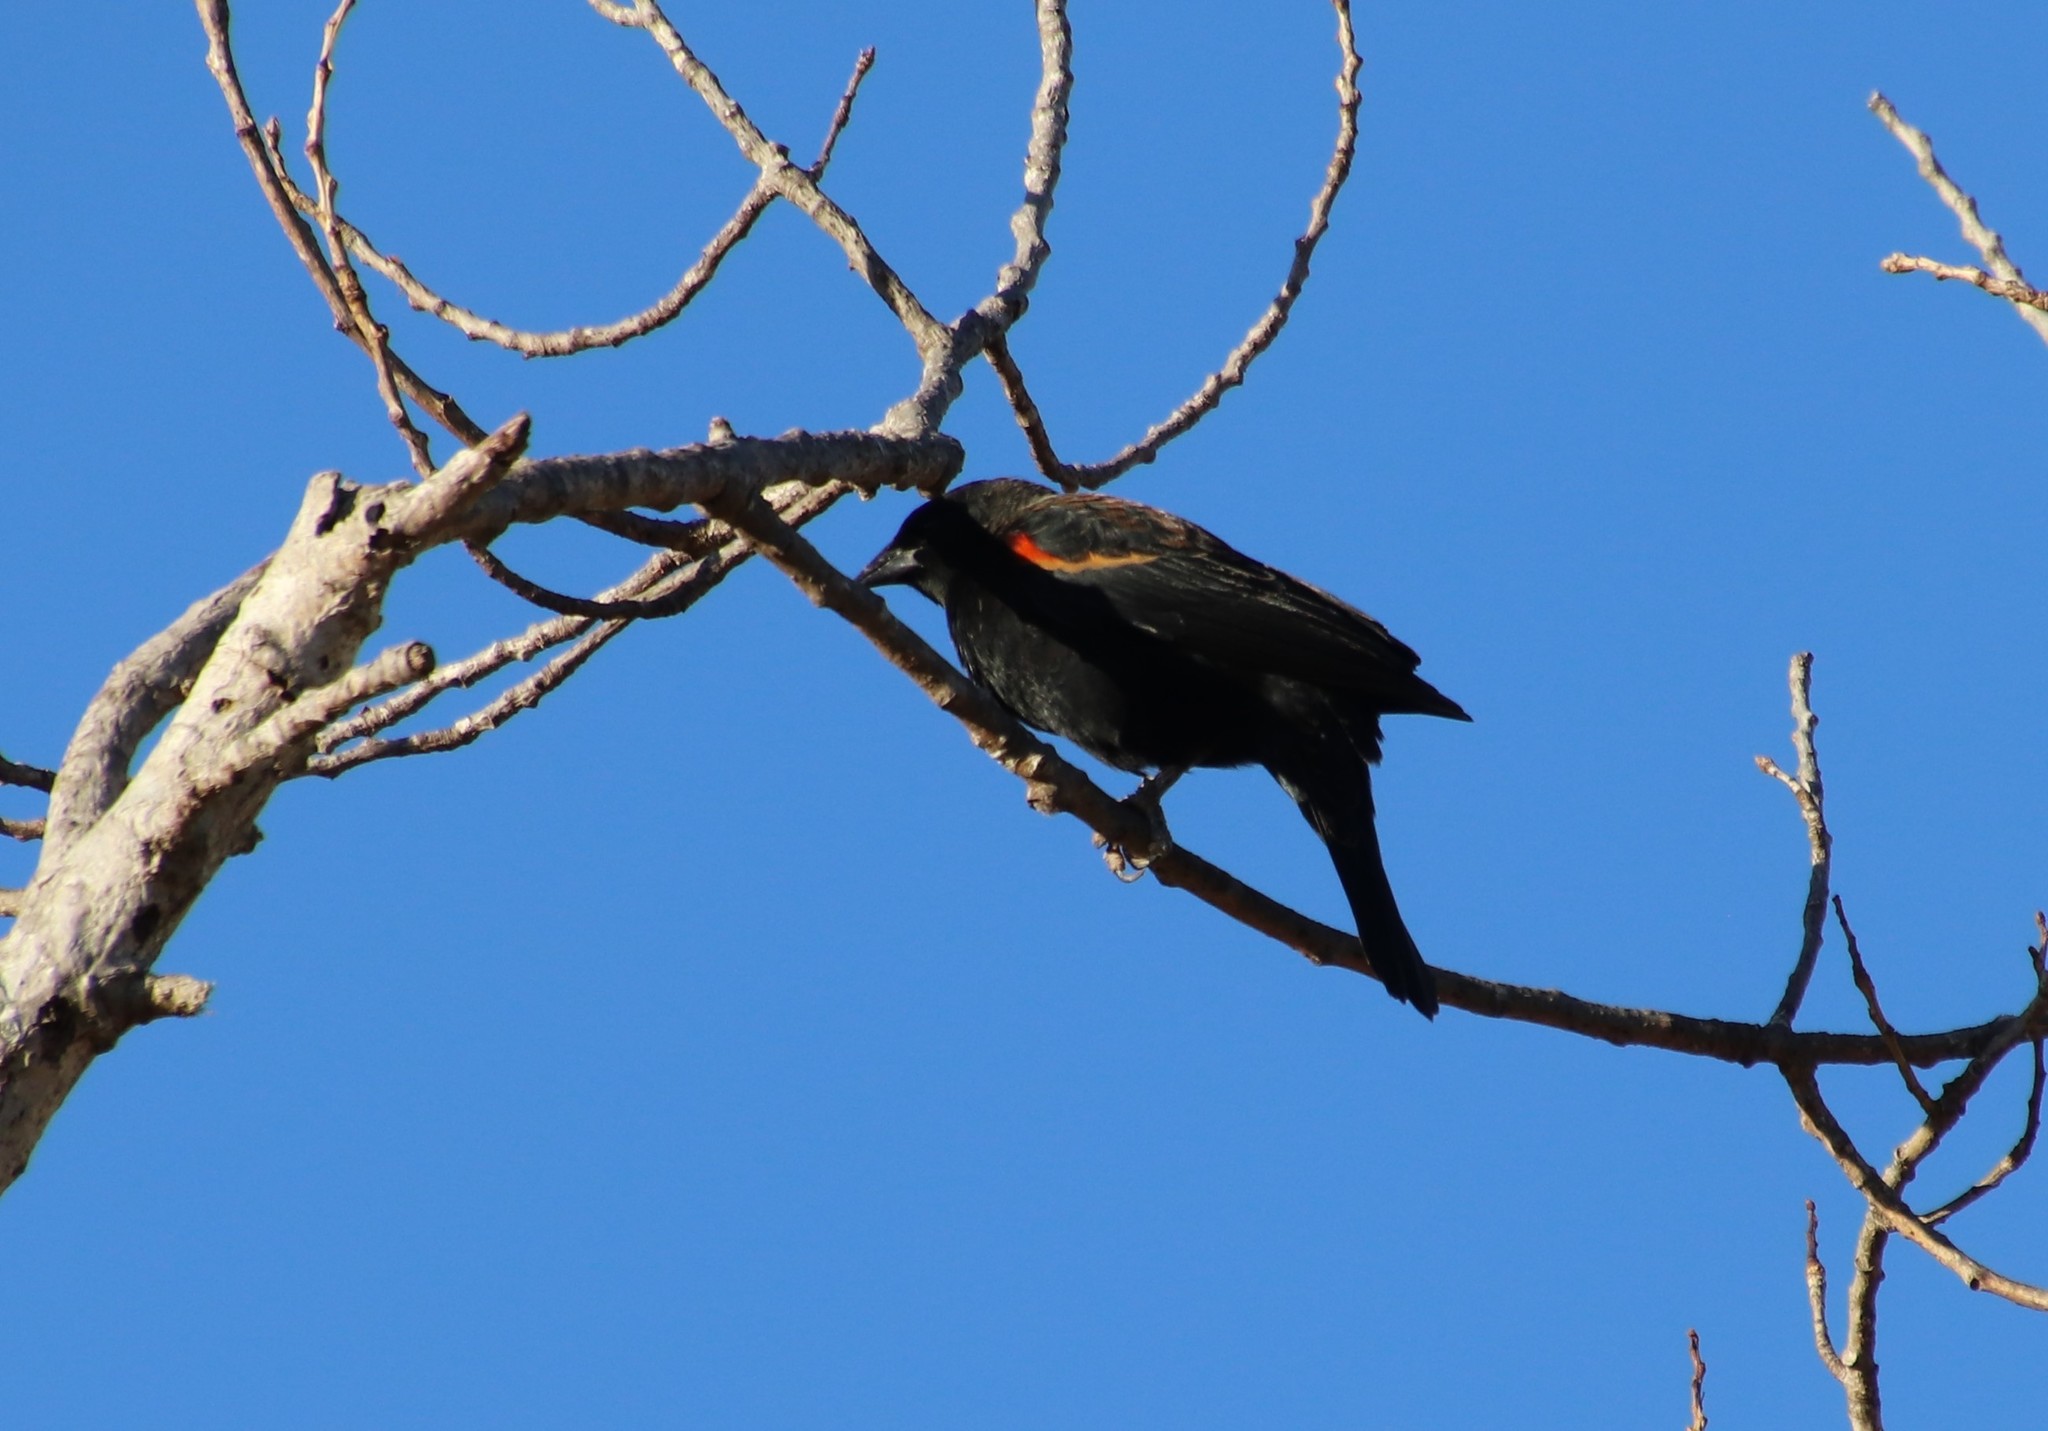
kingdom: Animalia
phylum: Chordata
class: Aves
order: Passeriformes
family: Icteridae
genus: Agelaius
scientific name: Agelaius phoeniceus
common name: Red-winged blackbird
